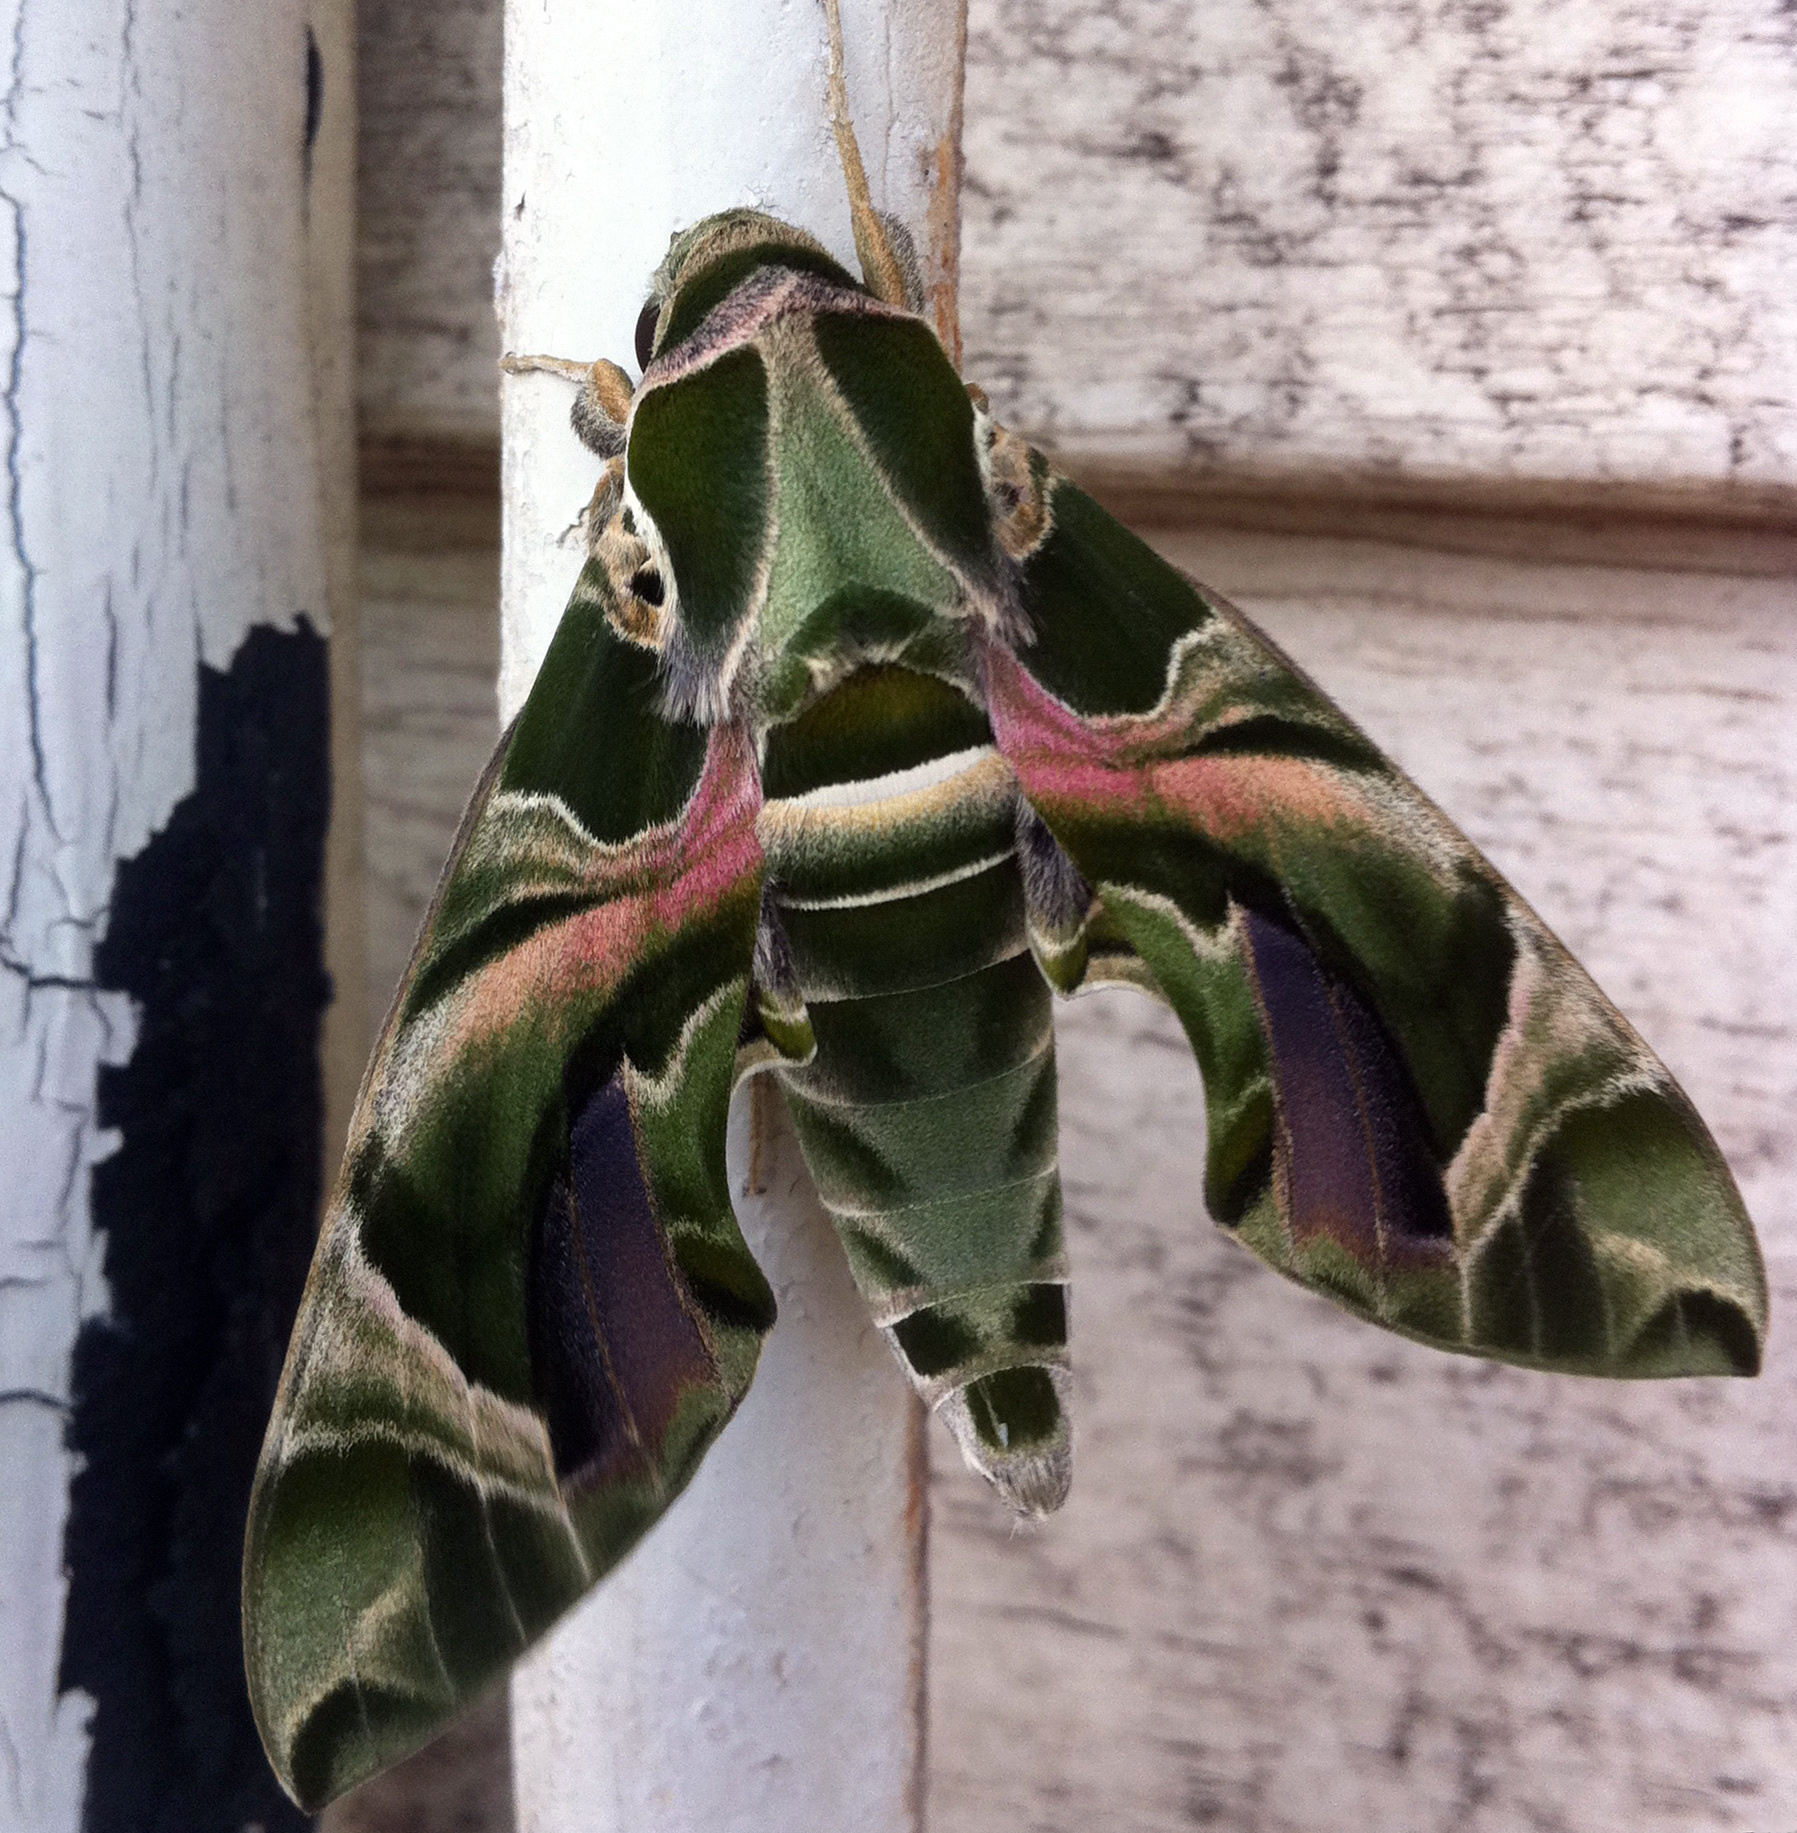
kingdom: Animalia
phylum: Arthropoda
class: Insecta
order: Lepidoptera
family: Sphingidae
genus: Daphnis
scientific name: Daphnis nerii
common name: Oleander hawk-moth
